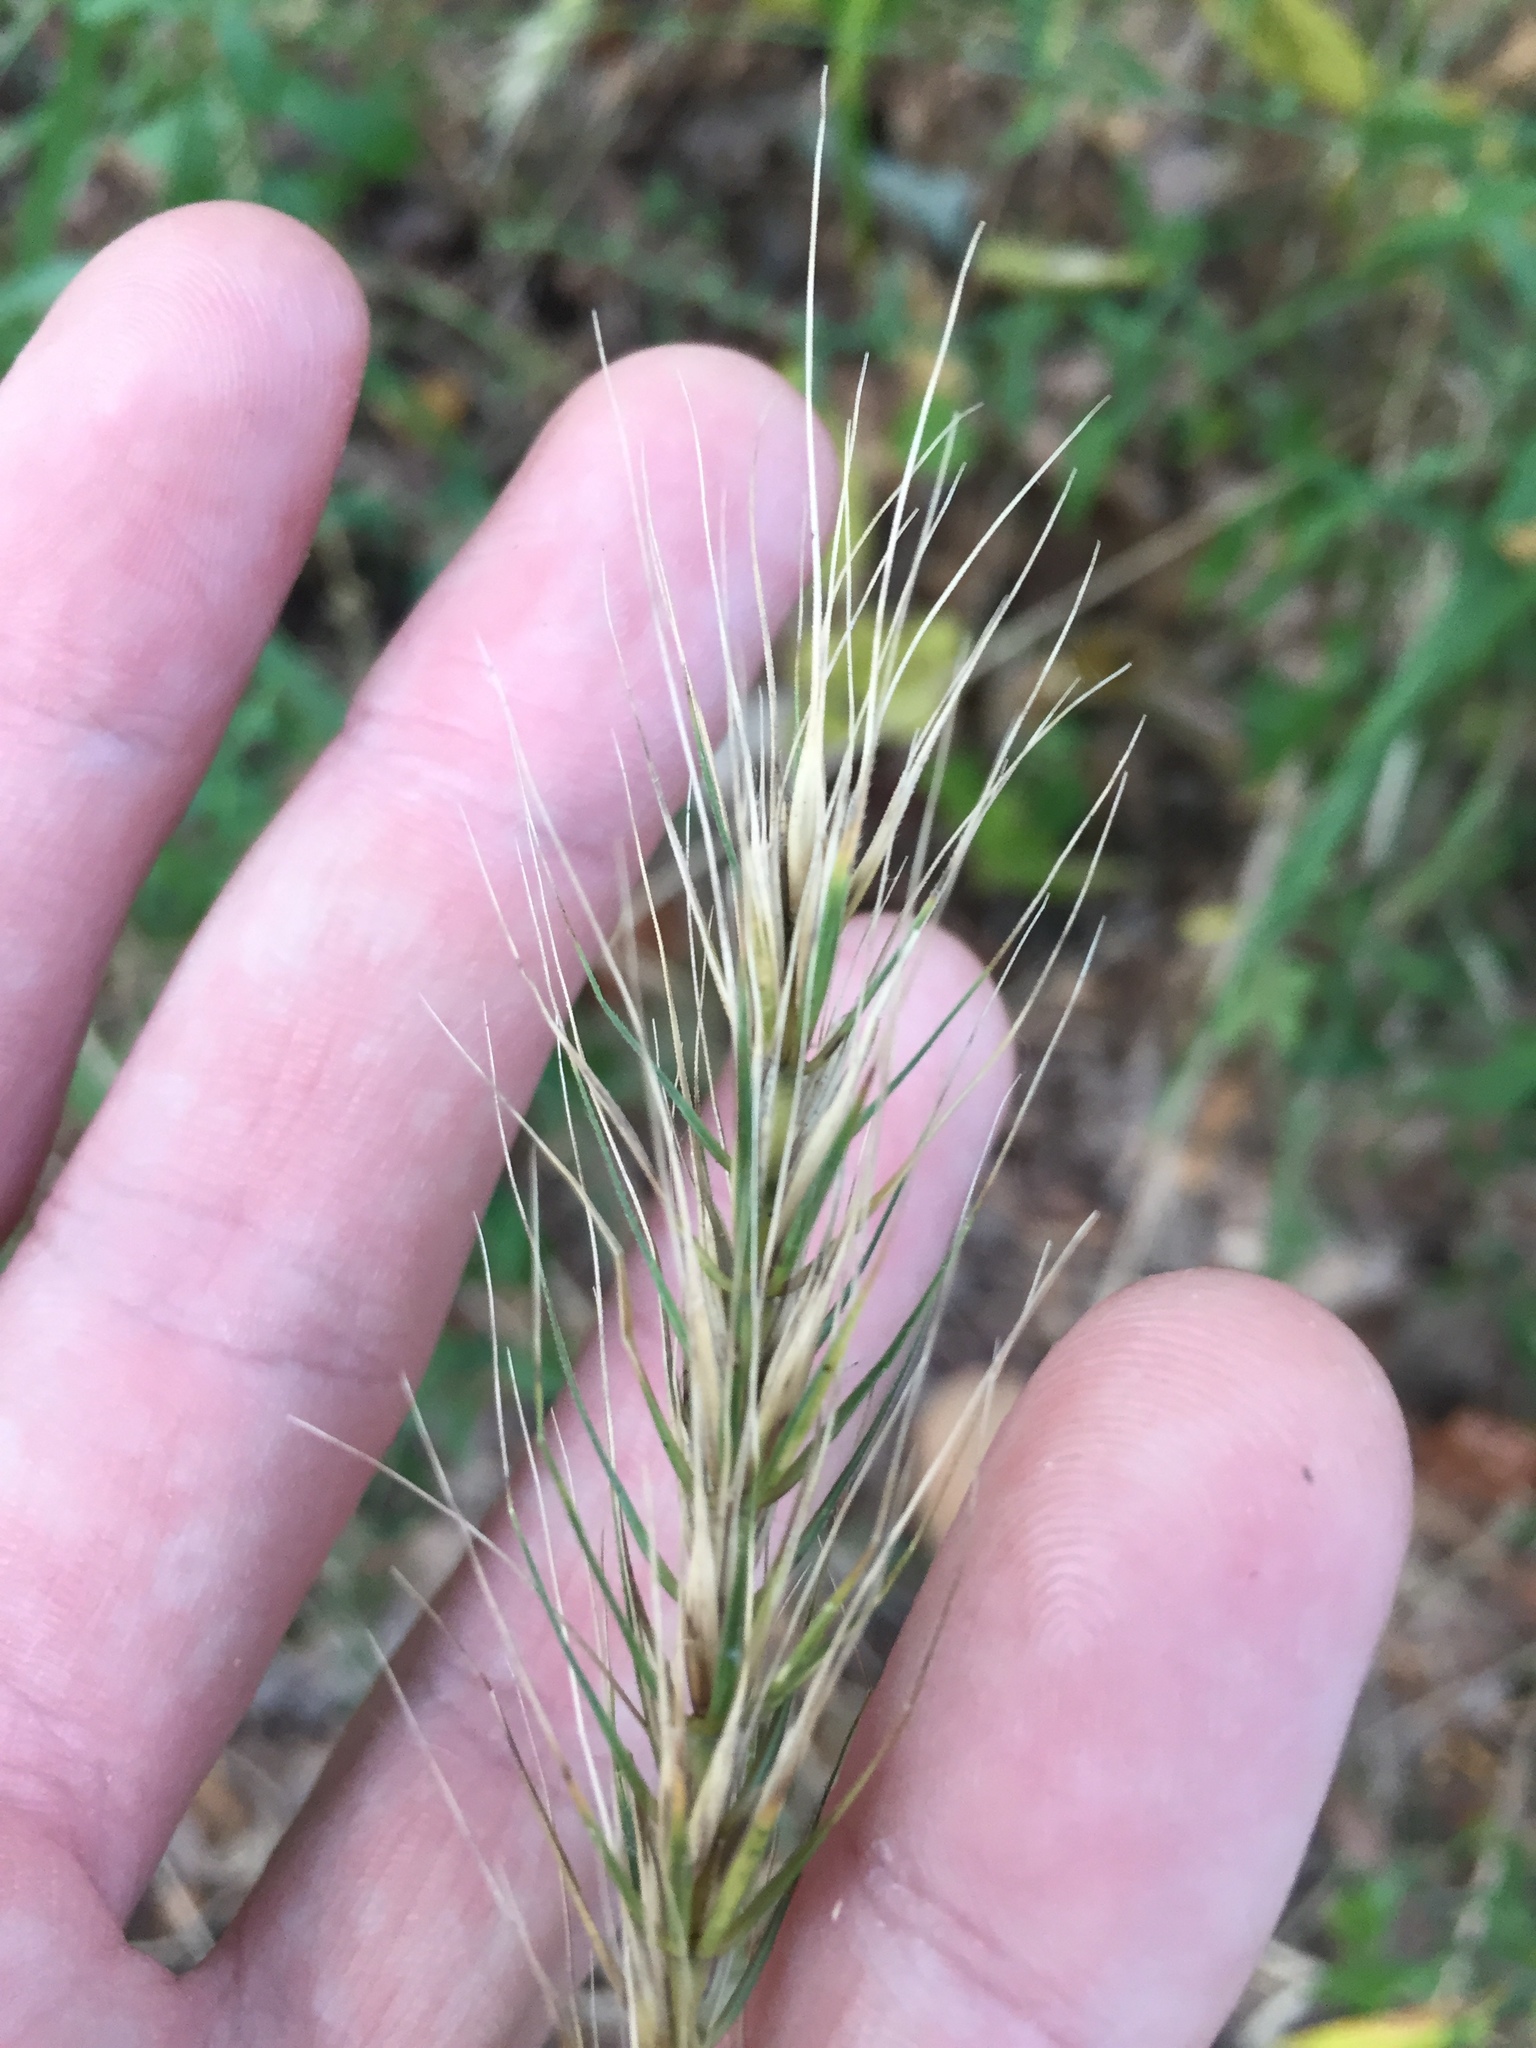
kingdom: Plantae
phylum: Tracheophyta
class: Liliopsida
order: Poales
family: Poaceae
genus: Elymus
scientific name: Elymus virginicus
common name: Common eastern wildrye
